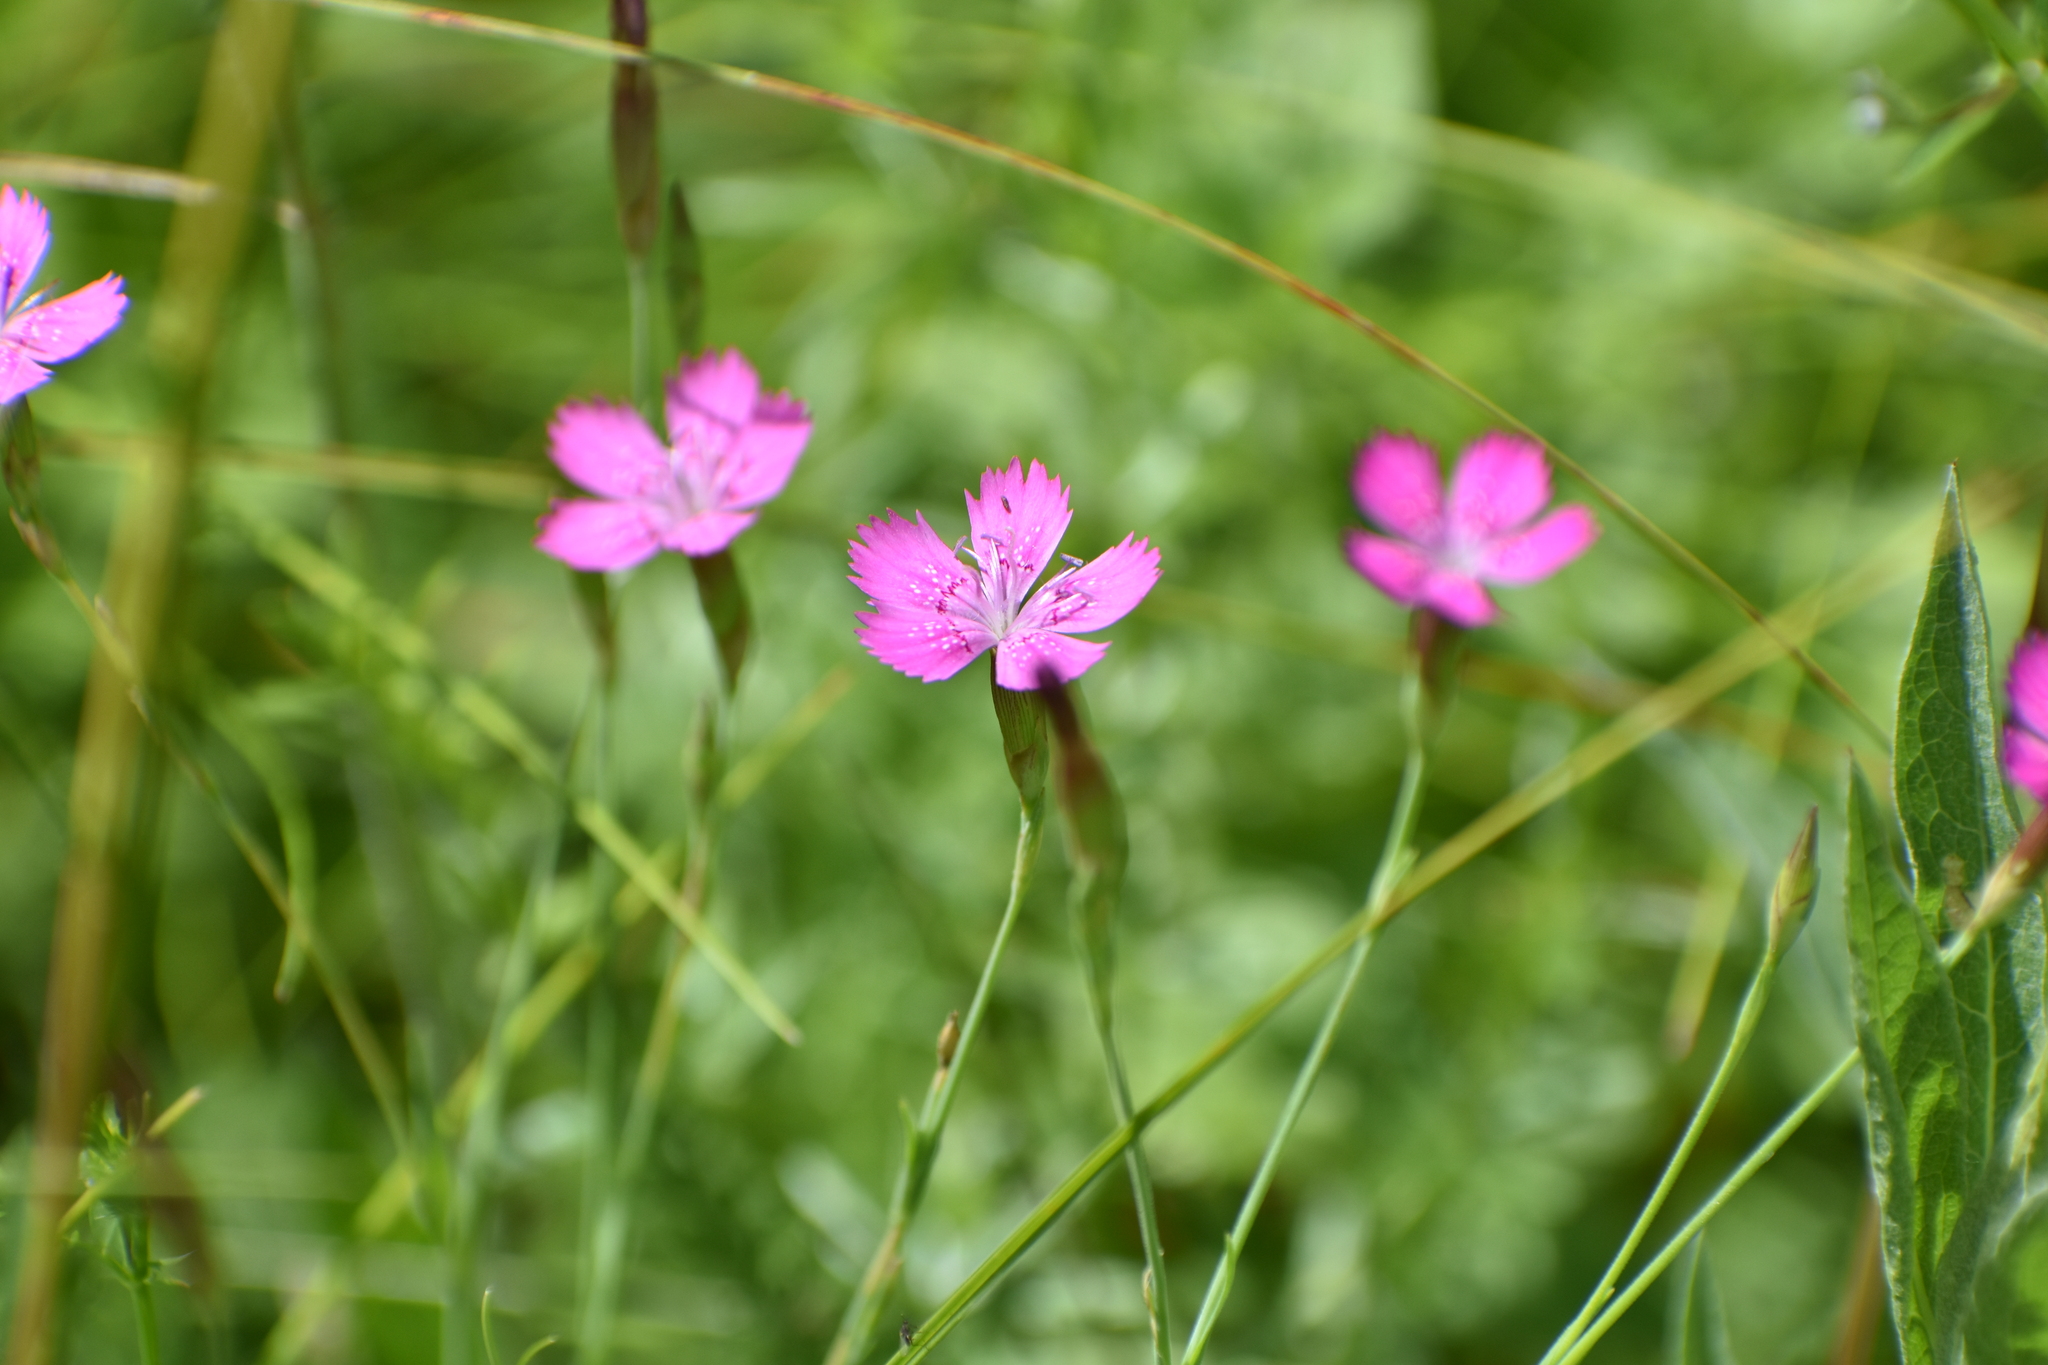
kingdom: Plantae
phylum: Tracheophyta
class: Magnoliopsida
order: Caryophyllales
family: Caryophyllaceae
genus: Dianthus
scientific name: Dianthus deltoides
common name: Maiden pink
